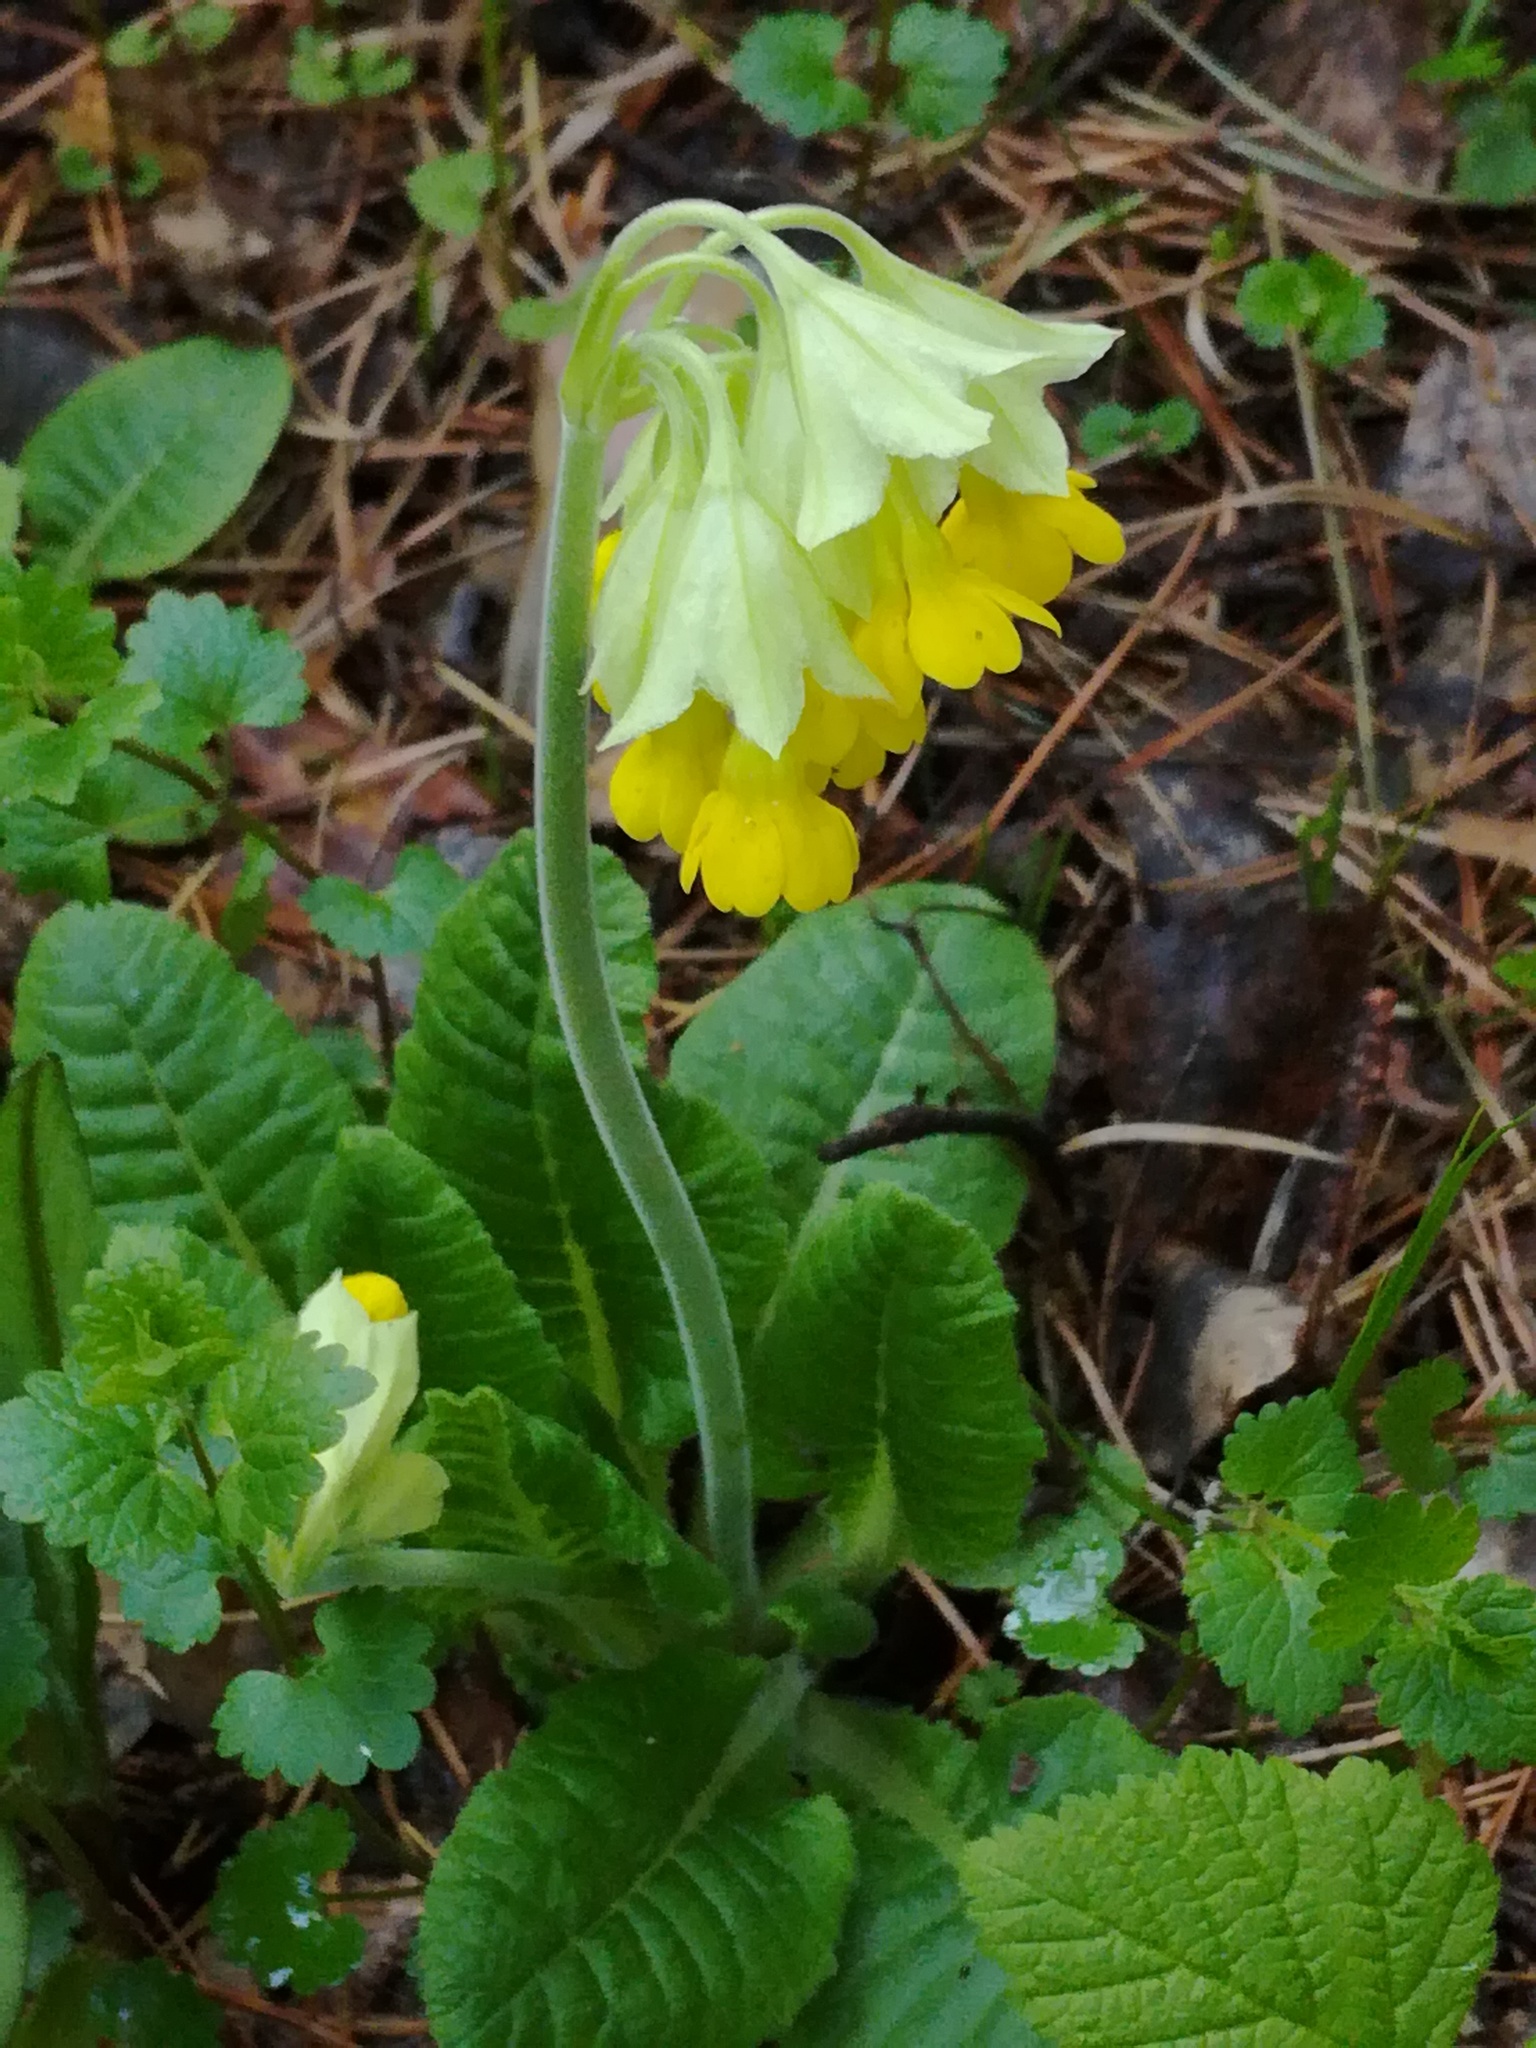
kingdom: Plantae
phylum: Tracheophyta
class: Magnoliopsida
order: Ericales
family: Primulaceae
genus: Primula
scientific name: Primula veris
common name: Cowslip
